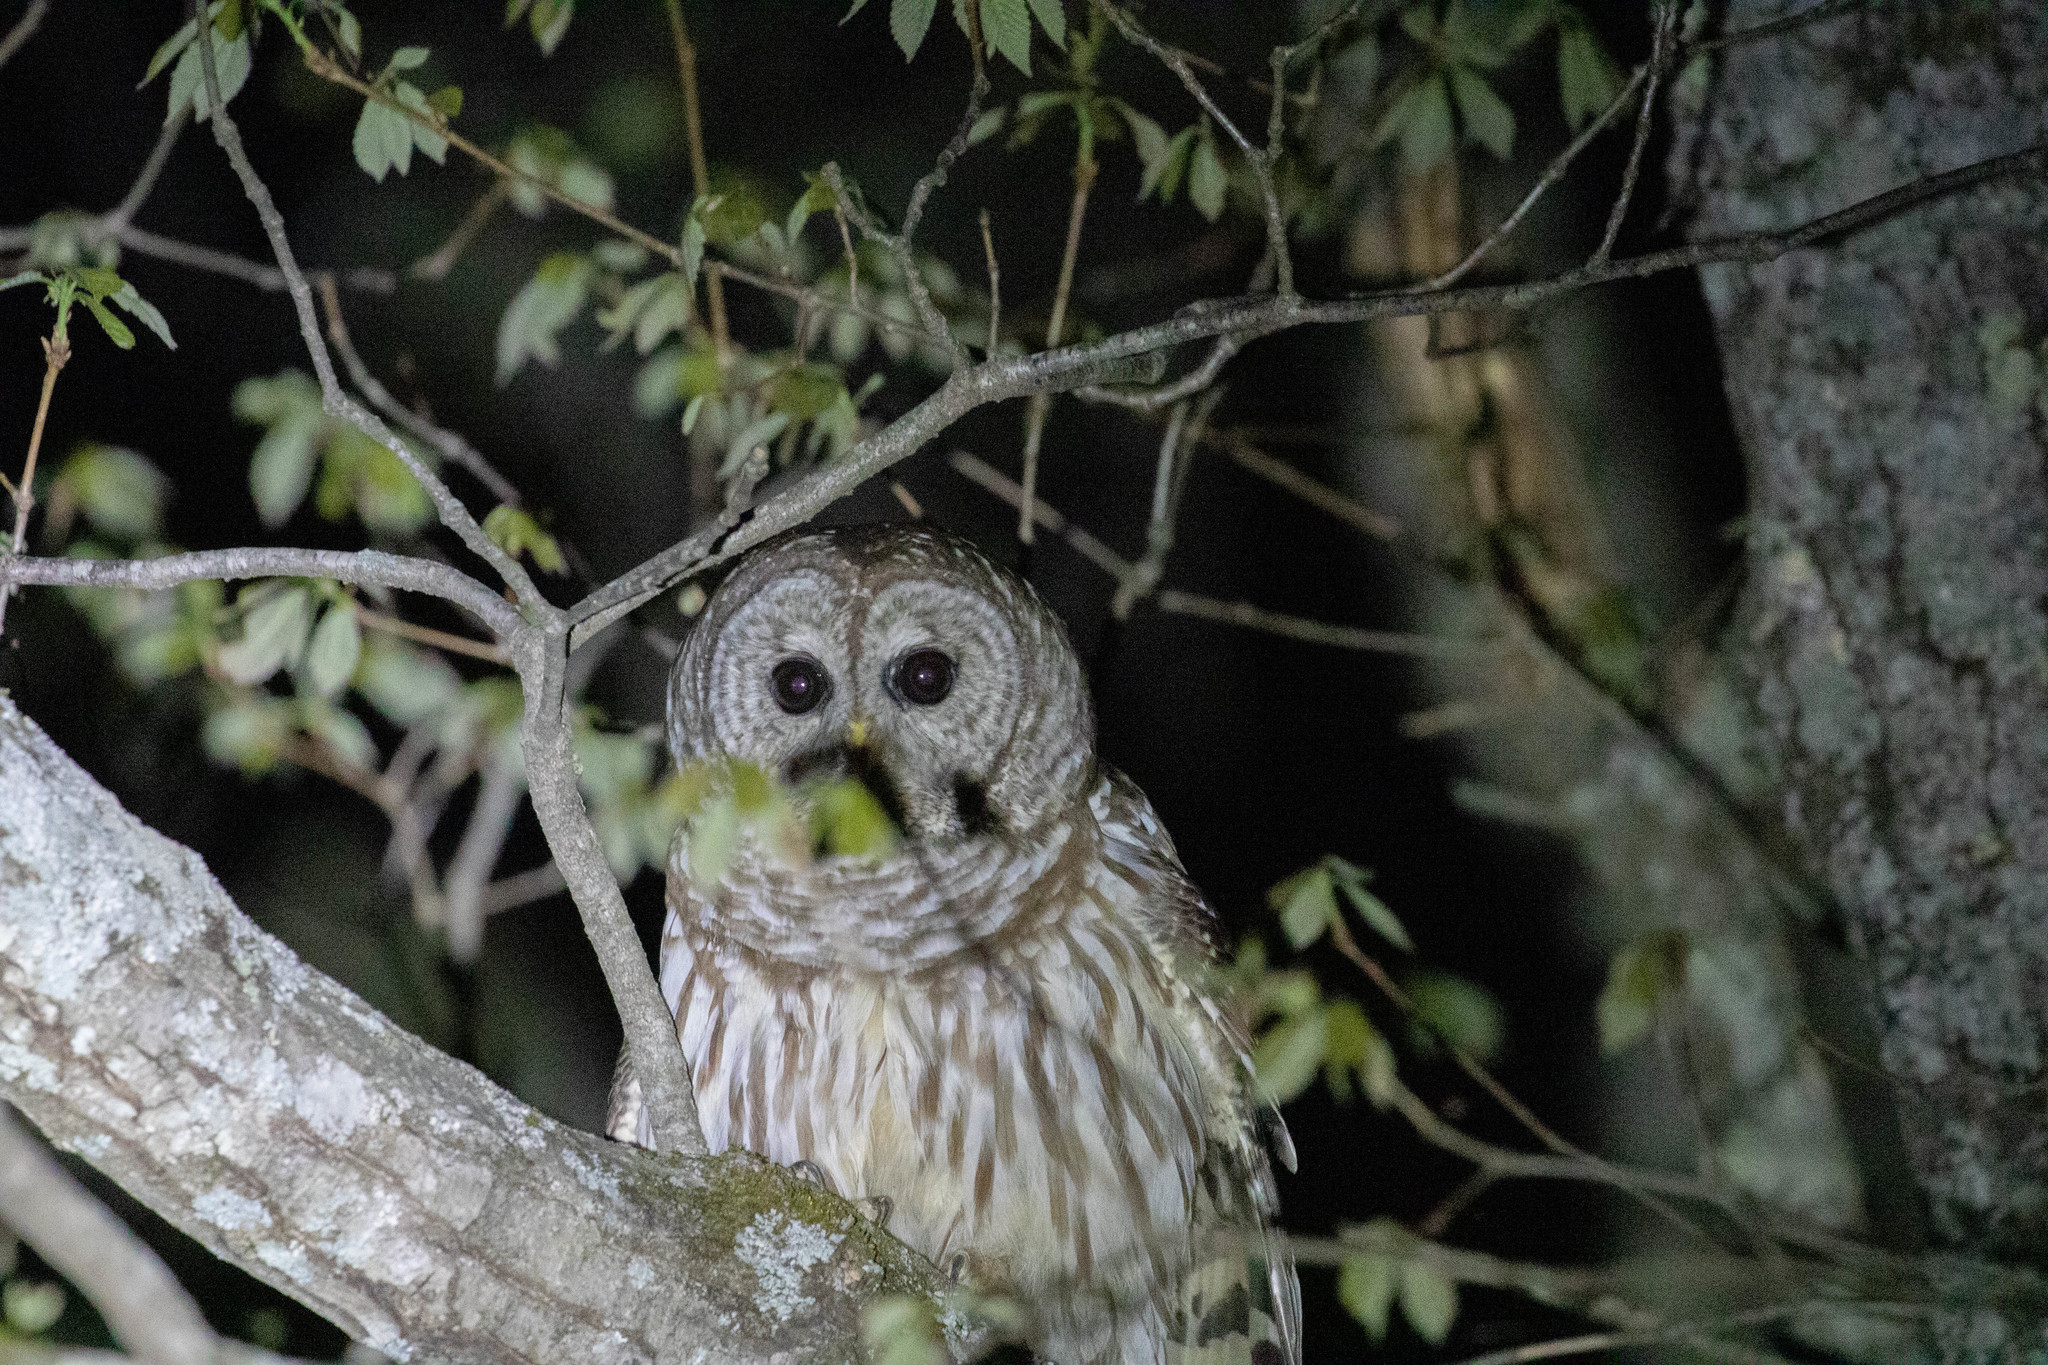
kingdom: Animalia
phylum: Chordata
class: Aves
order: Strigiformes
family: Strigidae
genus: Strix
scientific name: Strix varia
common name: Barred owl
